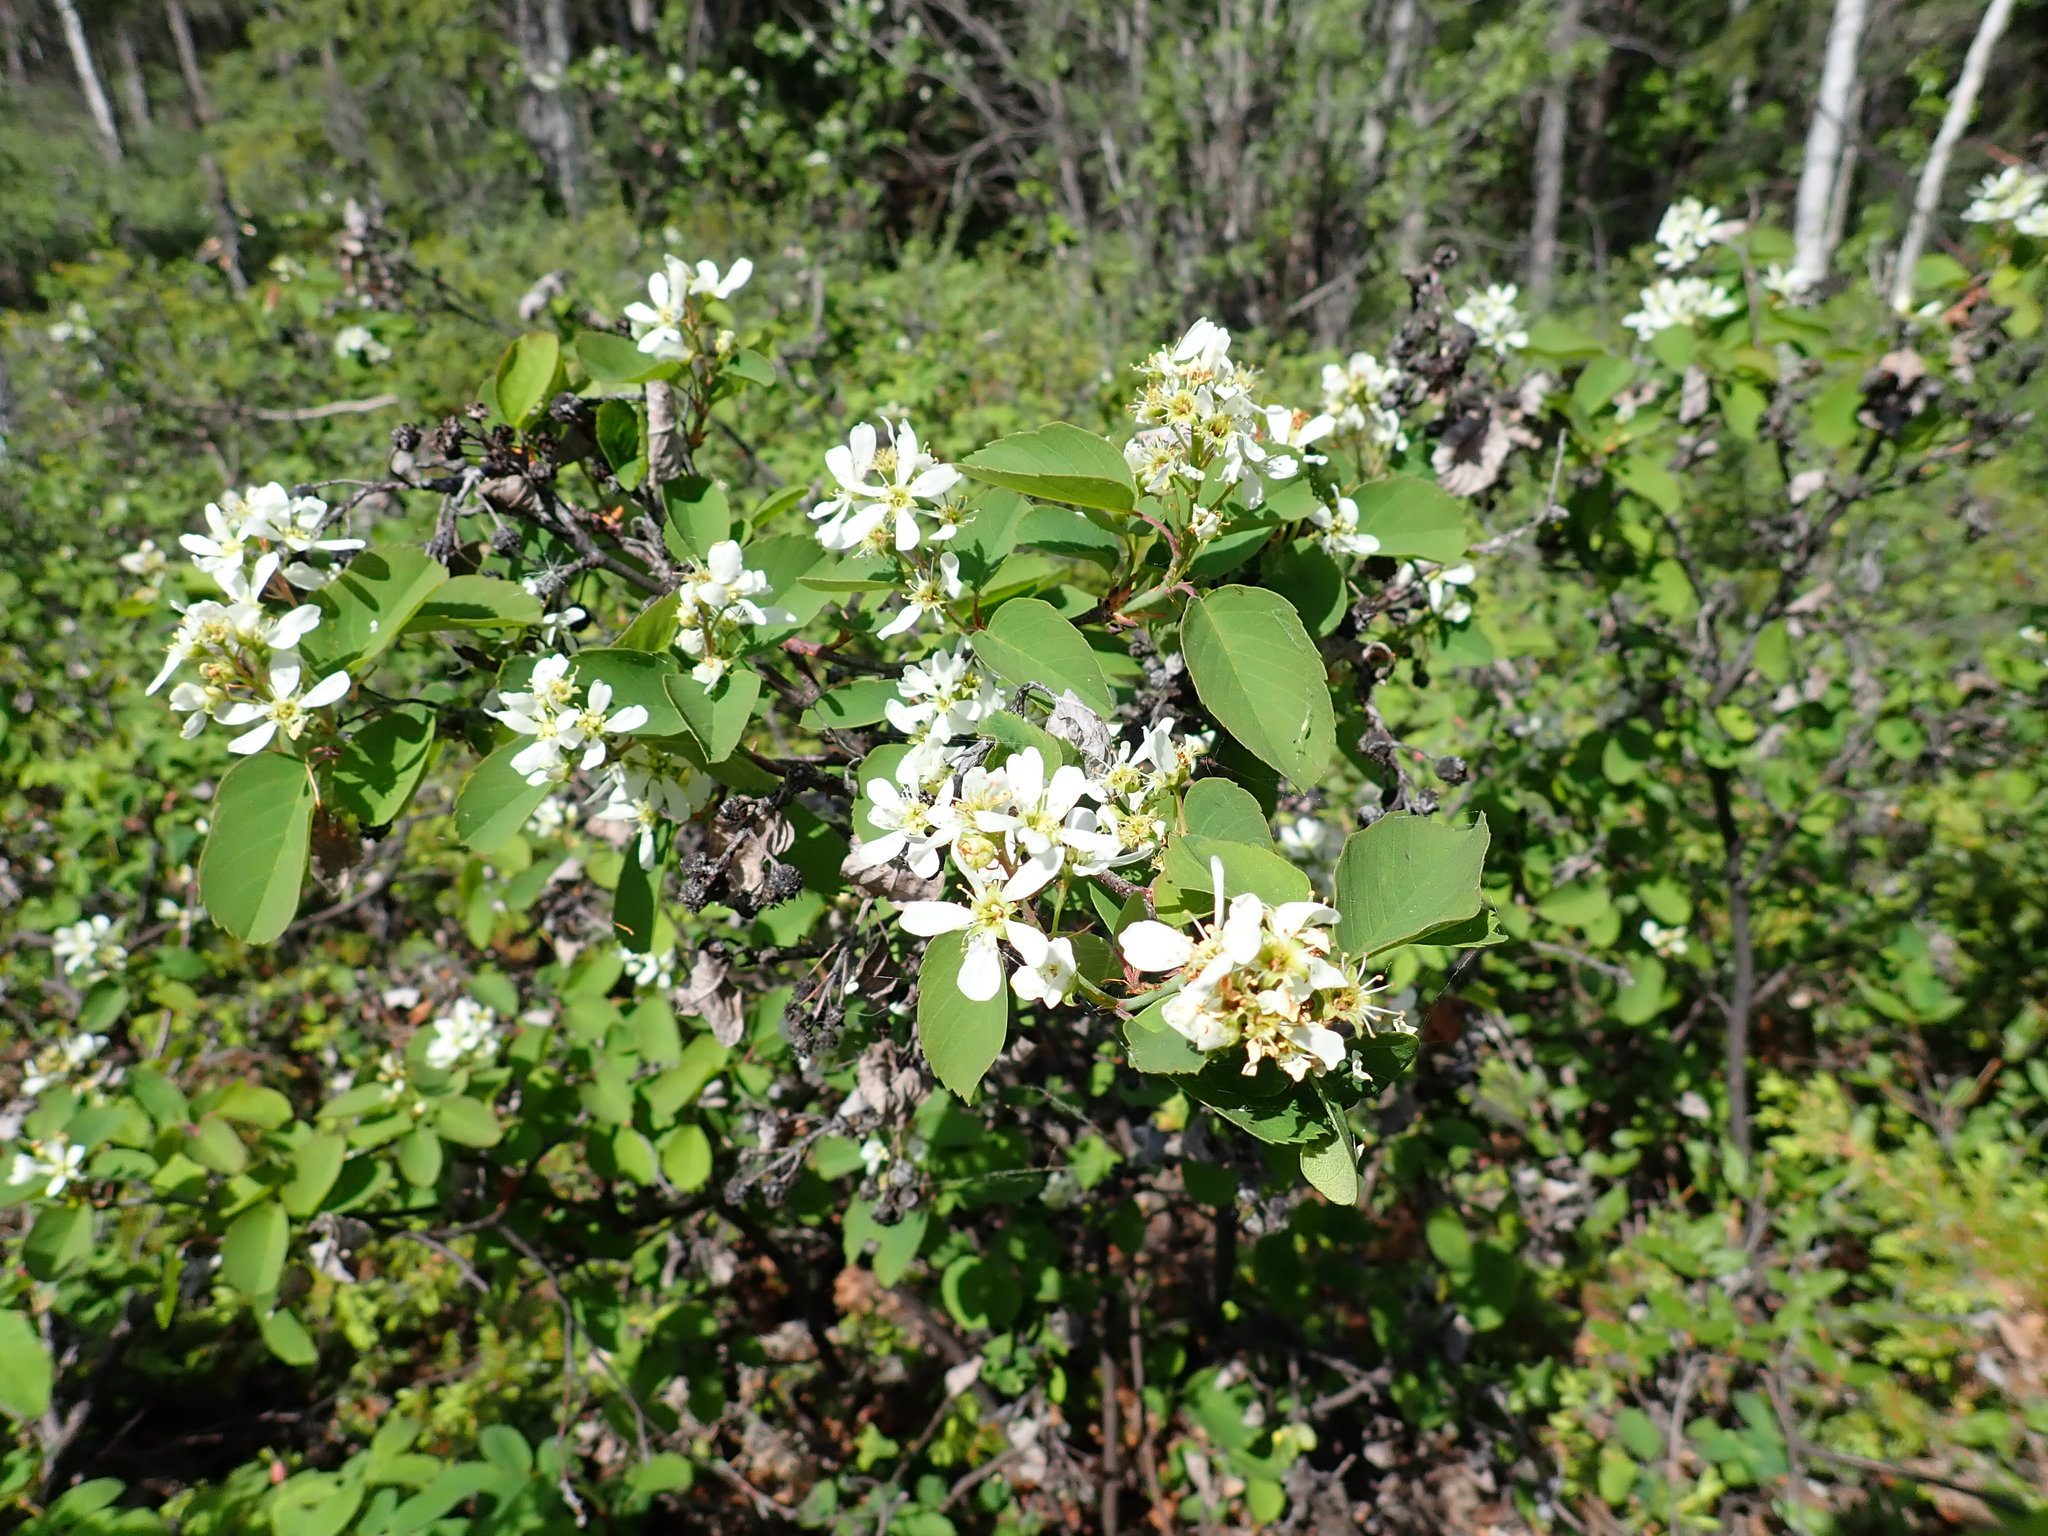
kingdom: Plantae
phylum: Tracheophyta
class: Magnoliopsida
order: Rosales
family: Rosaceae
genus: Amelanchier
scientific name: Amelanchier alnifolia
